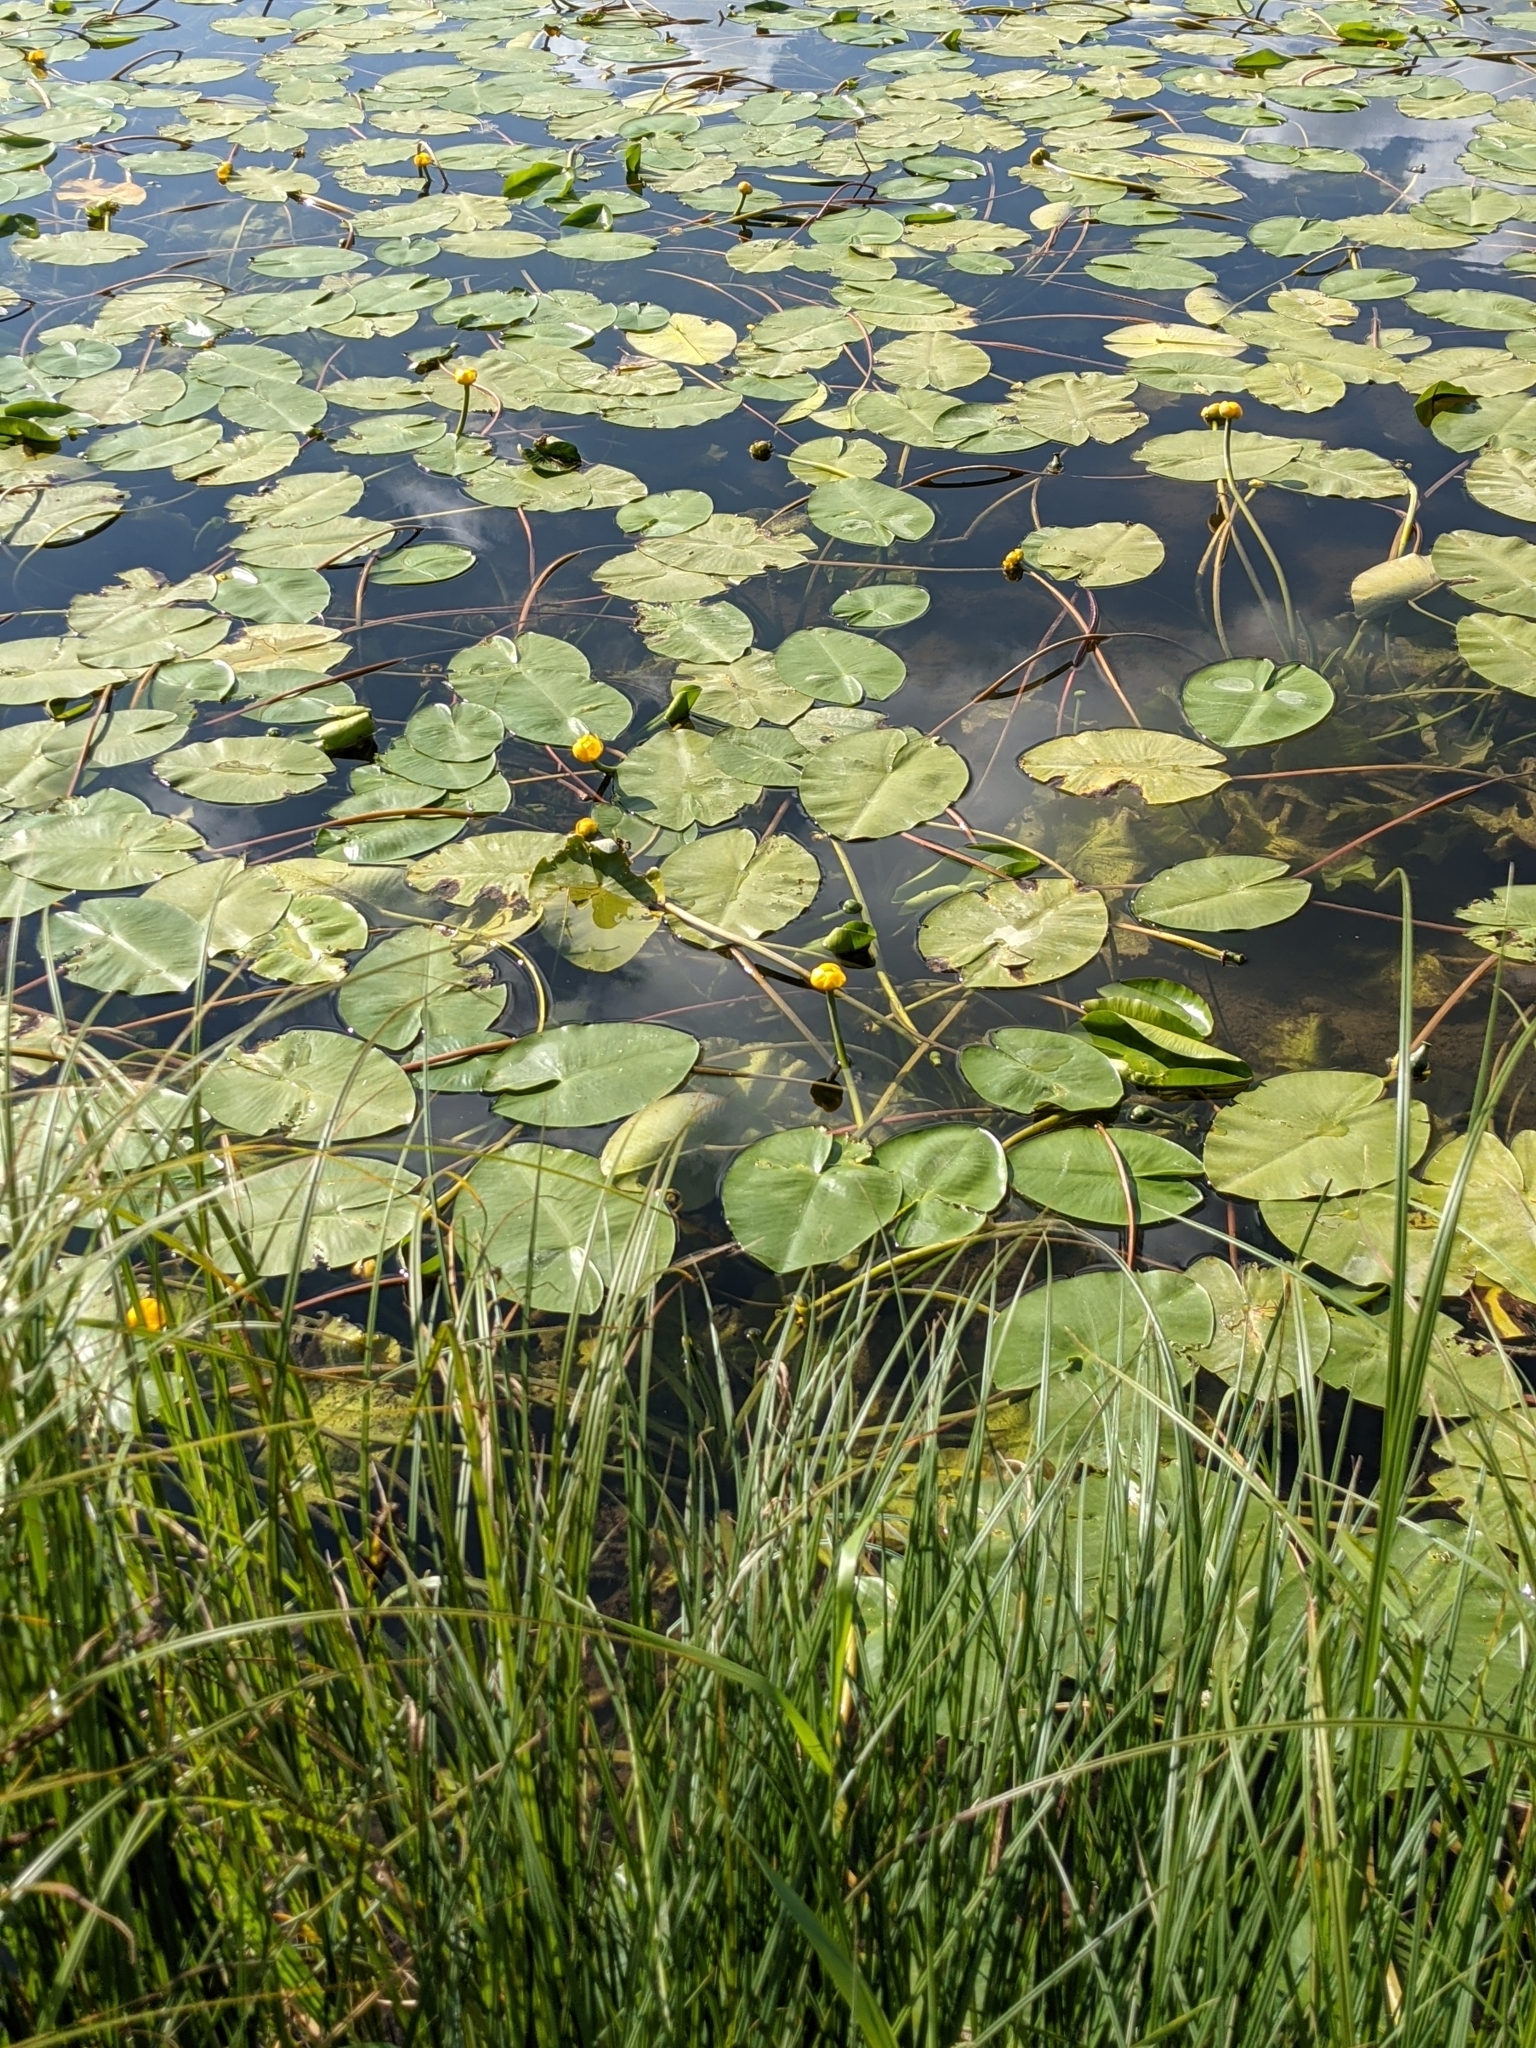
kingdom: Plantae
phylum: Tracheophyta
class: Magnoliopsida
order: Nymphaeales
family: Nymphaeaceae
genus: Nuphar
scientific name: Nuphar lutea
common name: Yellow water-lily
